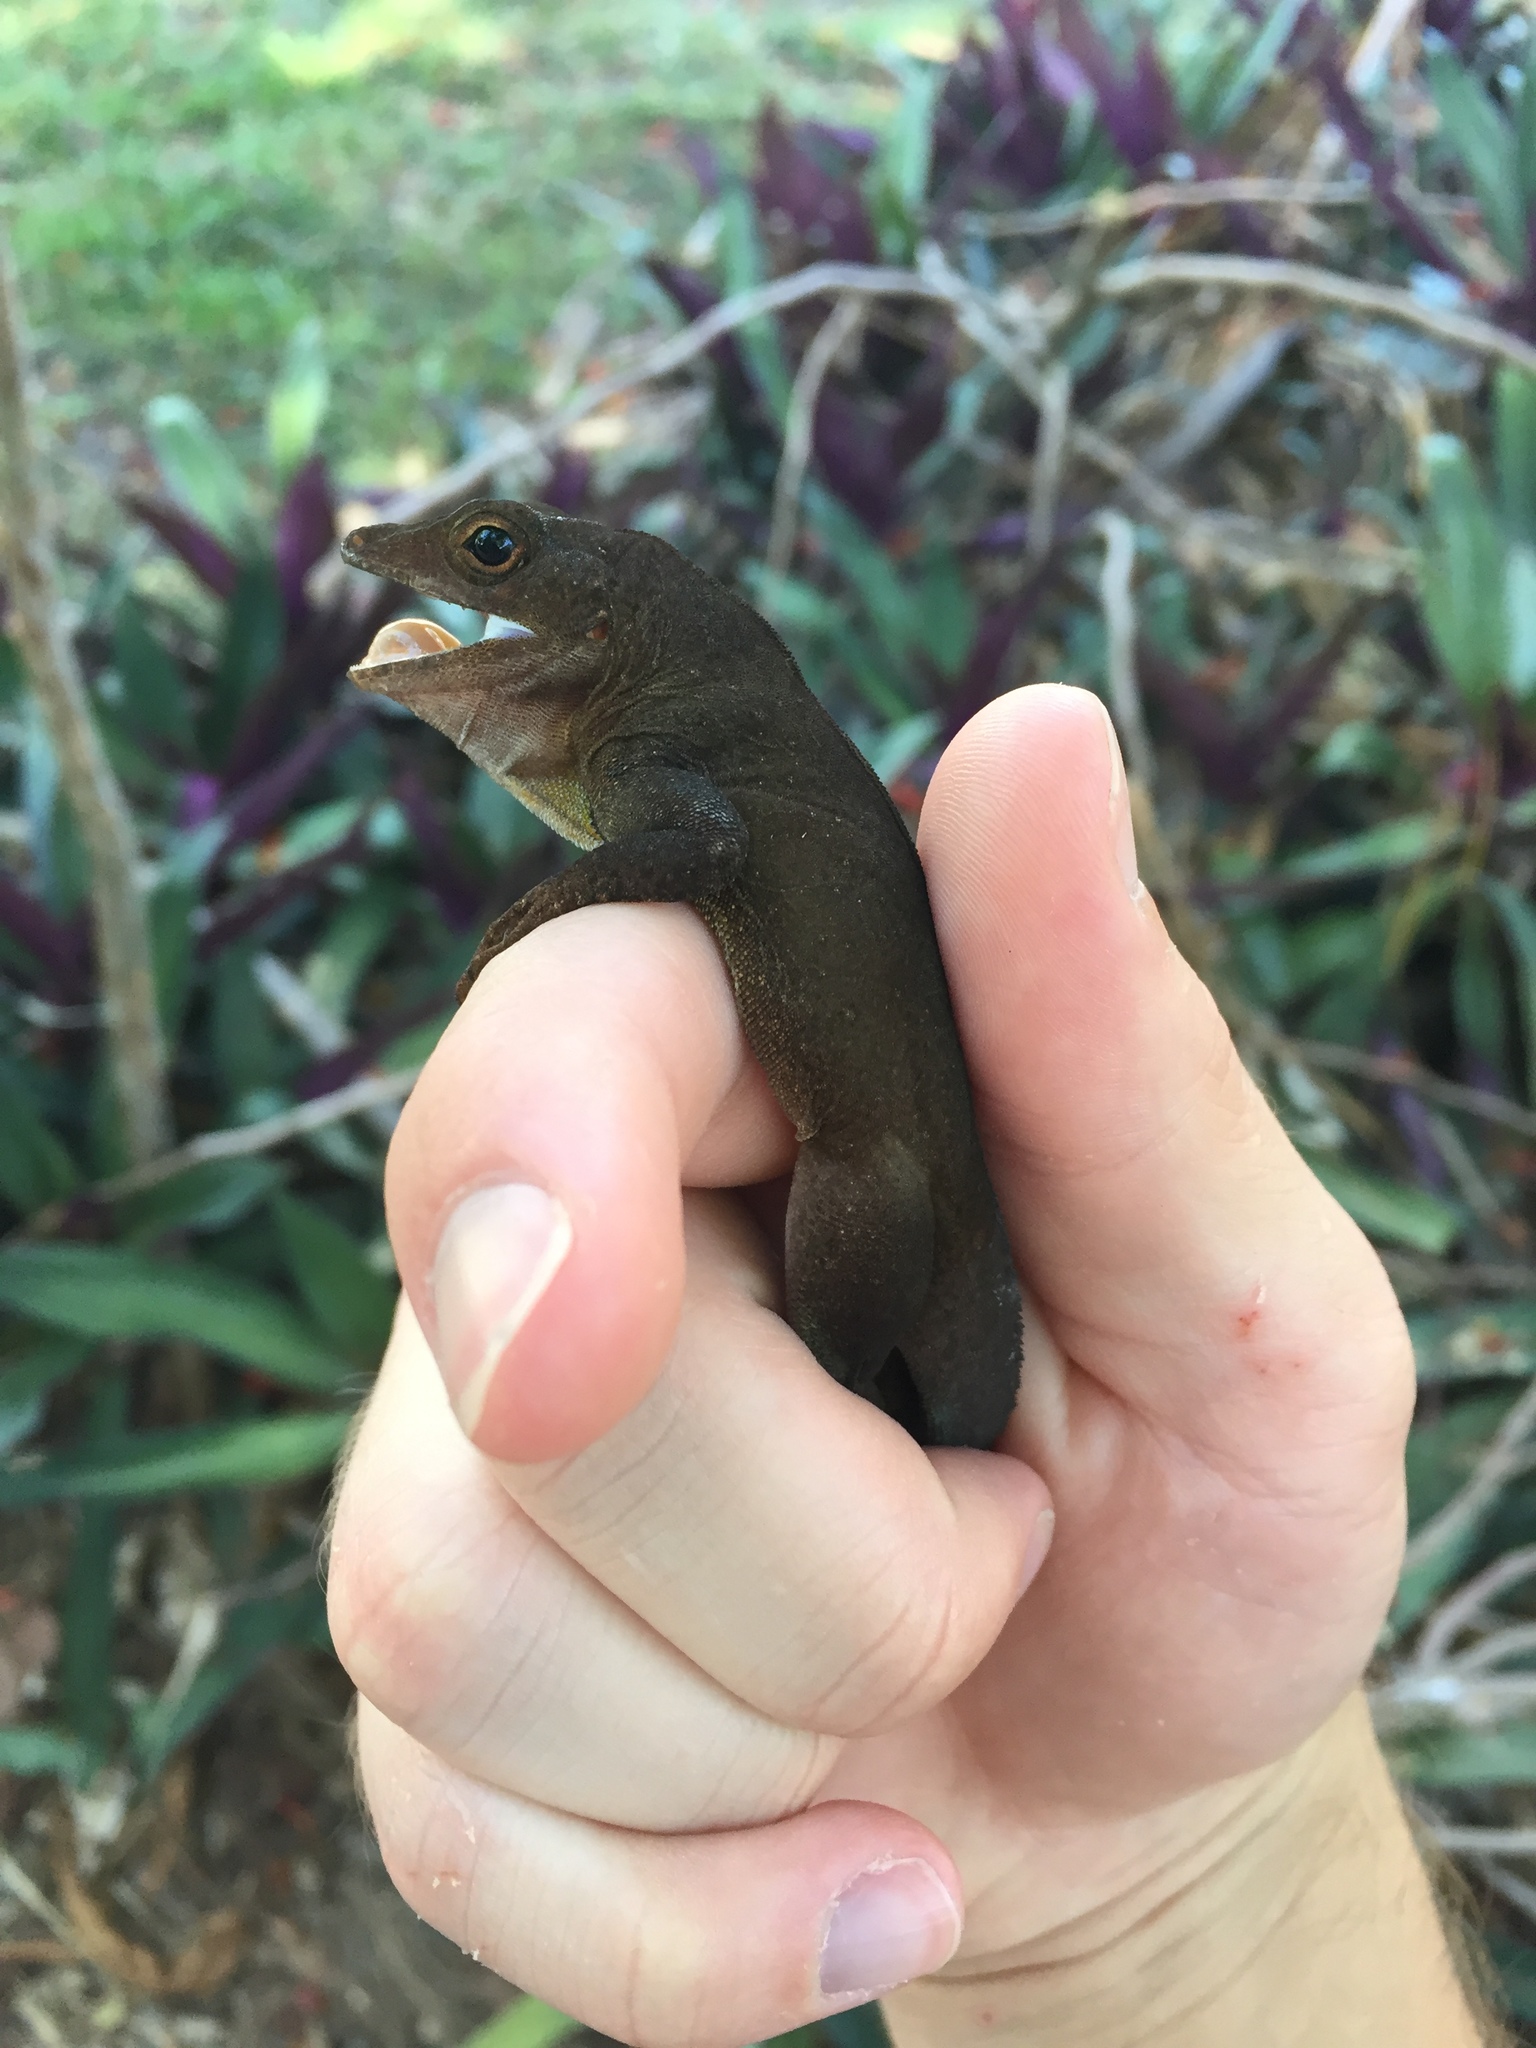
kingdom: Animalia
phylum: Chordata
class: Squamata
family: Dactyloidae
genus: Anolis
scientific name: Anolis cristatellus
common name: Crested anole
